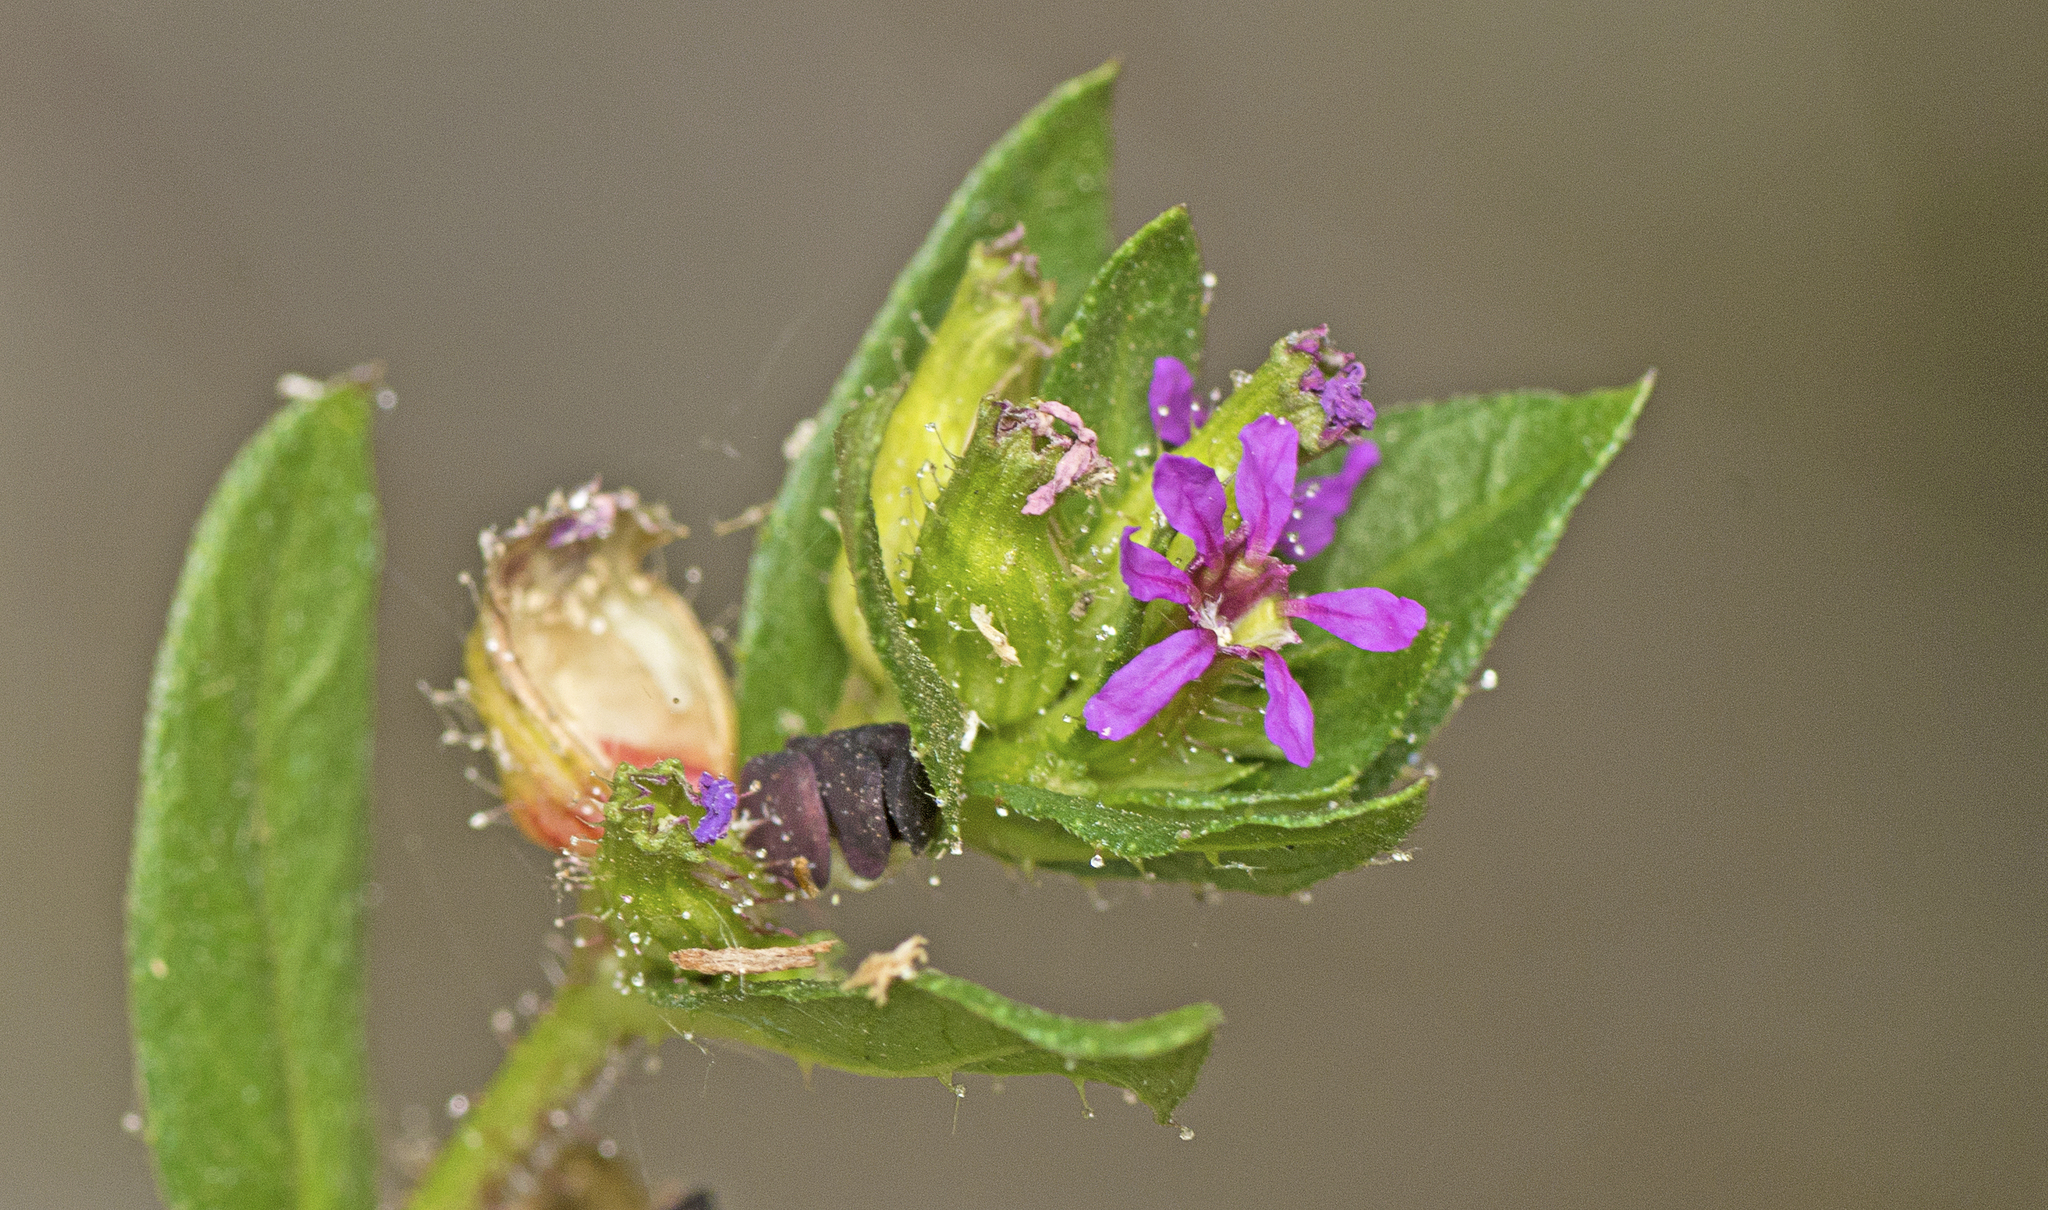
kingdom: Plantae
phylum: Tracheophyta
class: Magnoliopsida
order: Myrtales
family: Lythraceae
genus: Cuphea
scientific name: Cuphea carthagenensis
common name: Colombian waxweed
